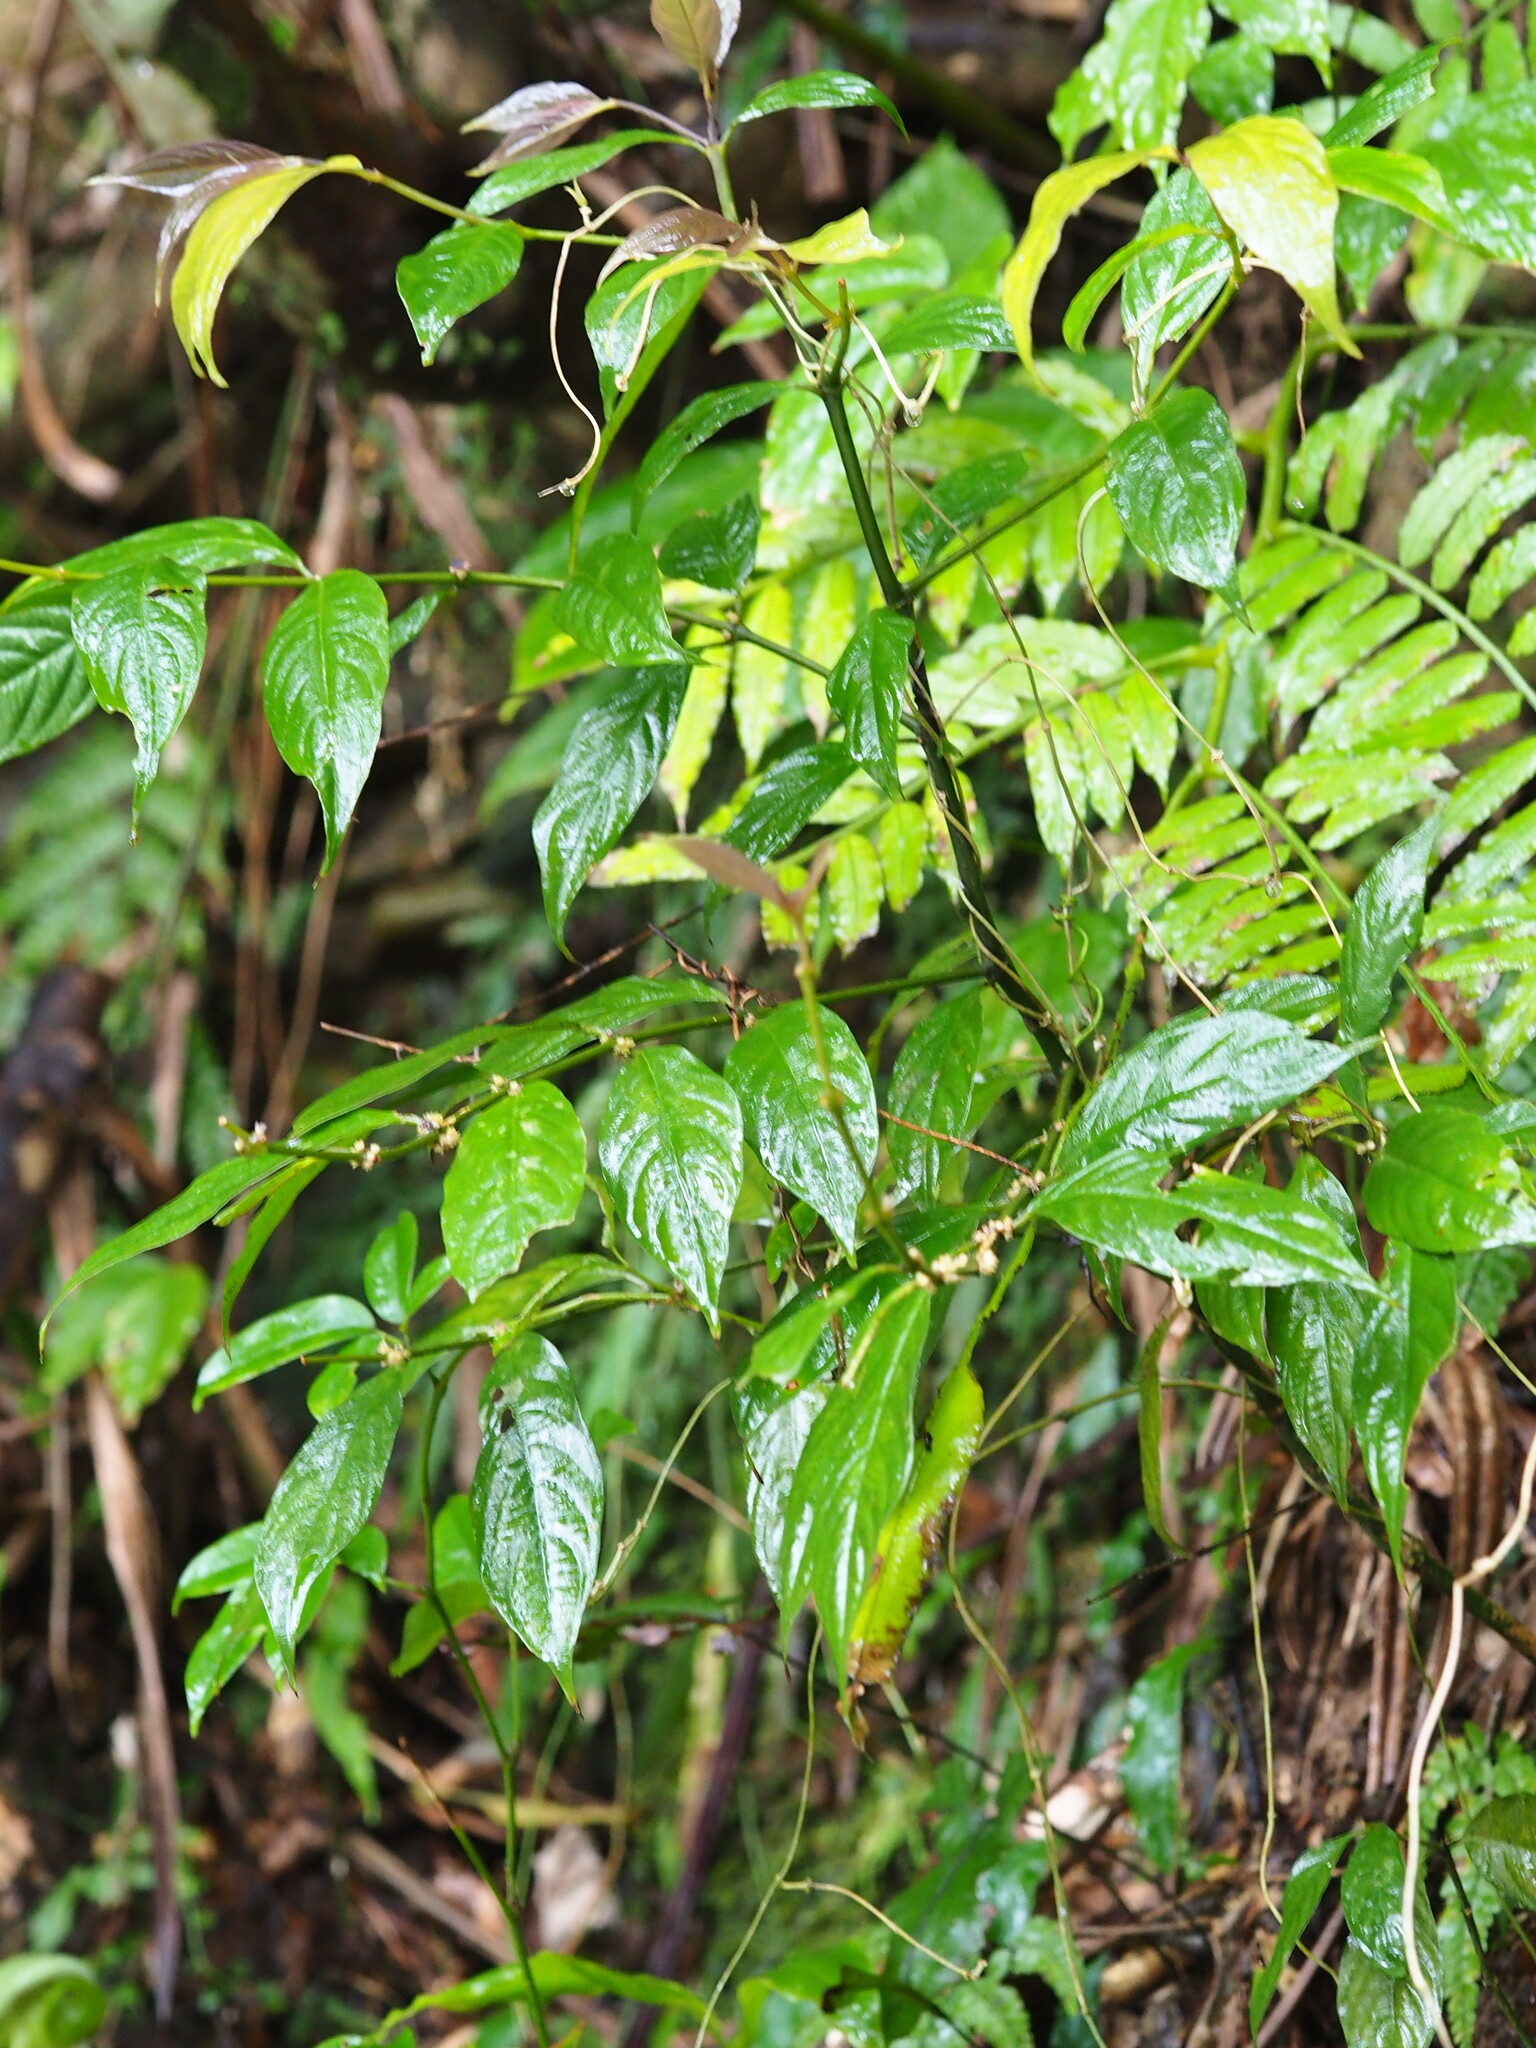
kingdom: Plantae
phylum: Tracheophyta
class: Magnoliopsida
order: Gentianales
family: Rubiaceae
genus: Lasianthus
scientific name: Lasianthus fordii
